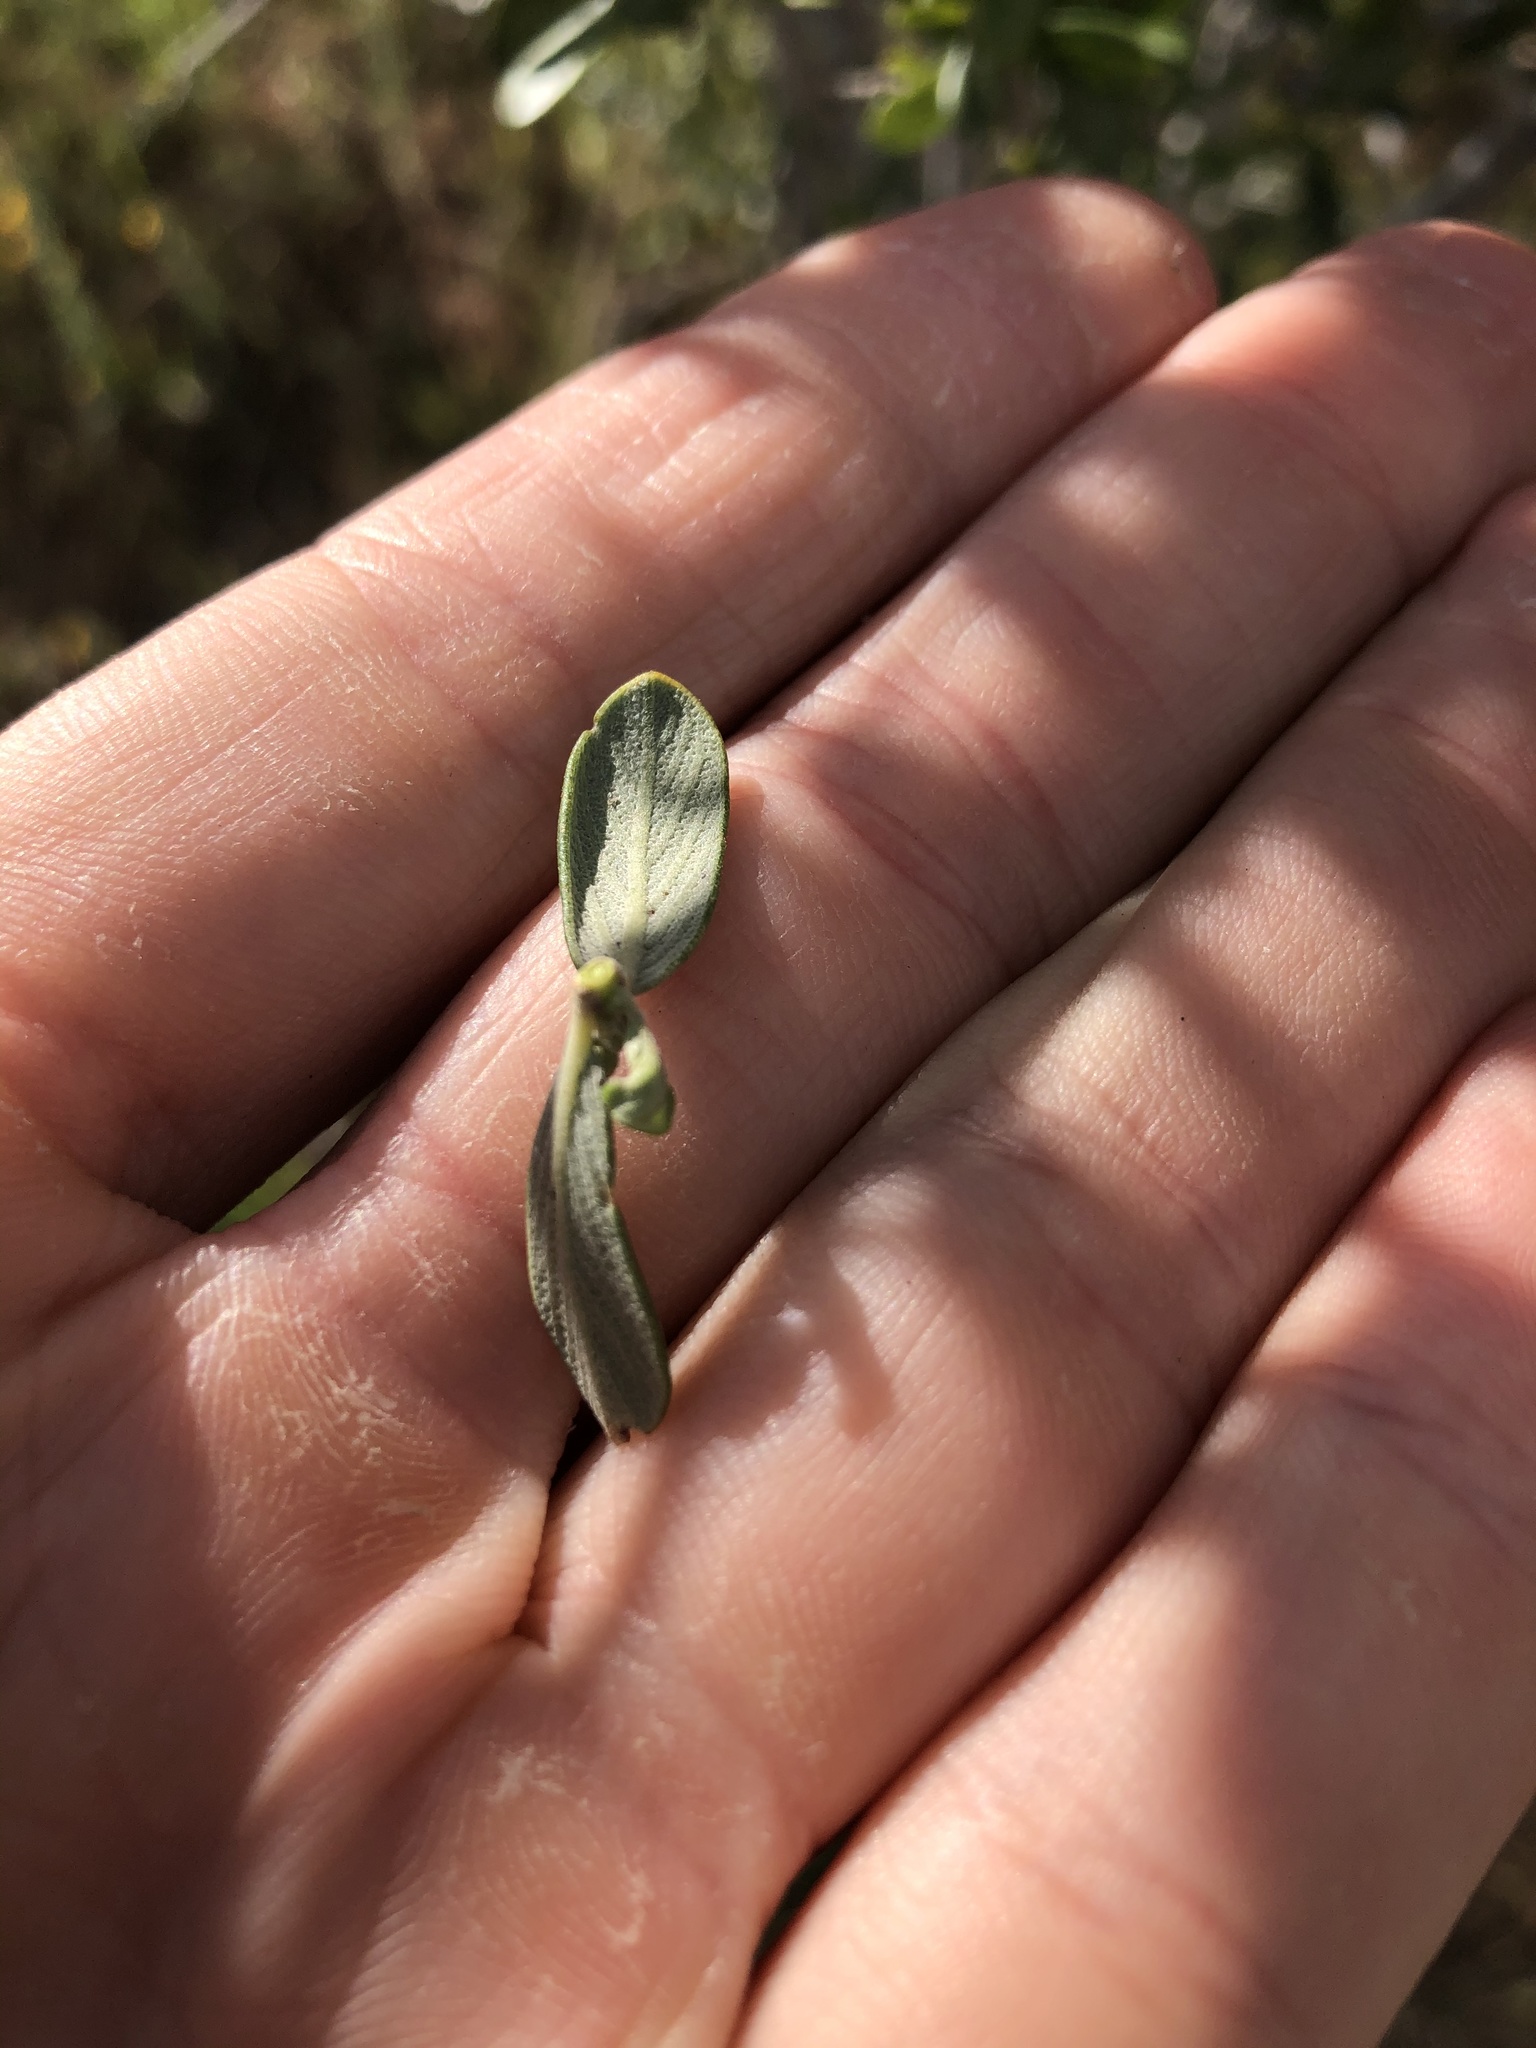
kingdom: Plantae
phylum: Tracheophyta
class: Magnoliopsida
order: Rosales
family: Rhamnaceae
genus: Ceanothus
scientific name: Ceanothus cuneatus
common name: Cuneate ceanothus
